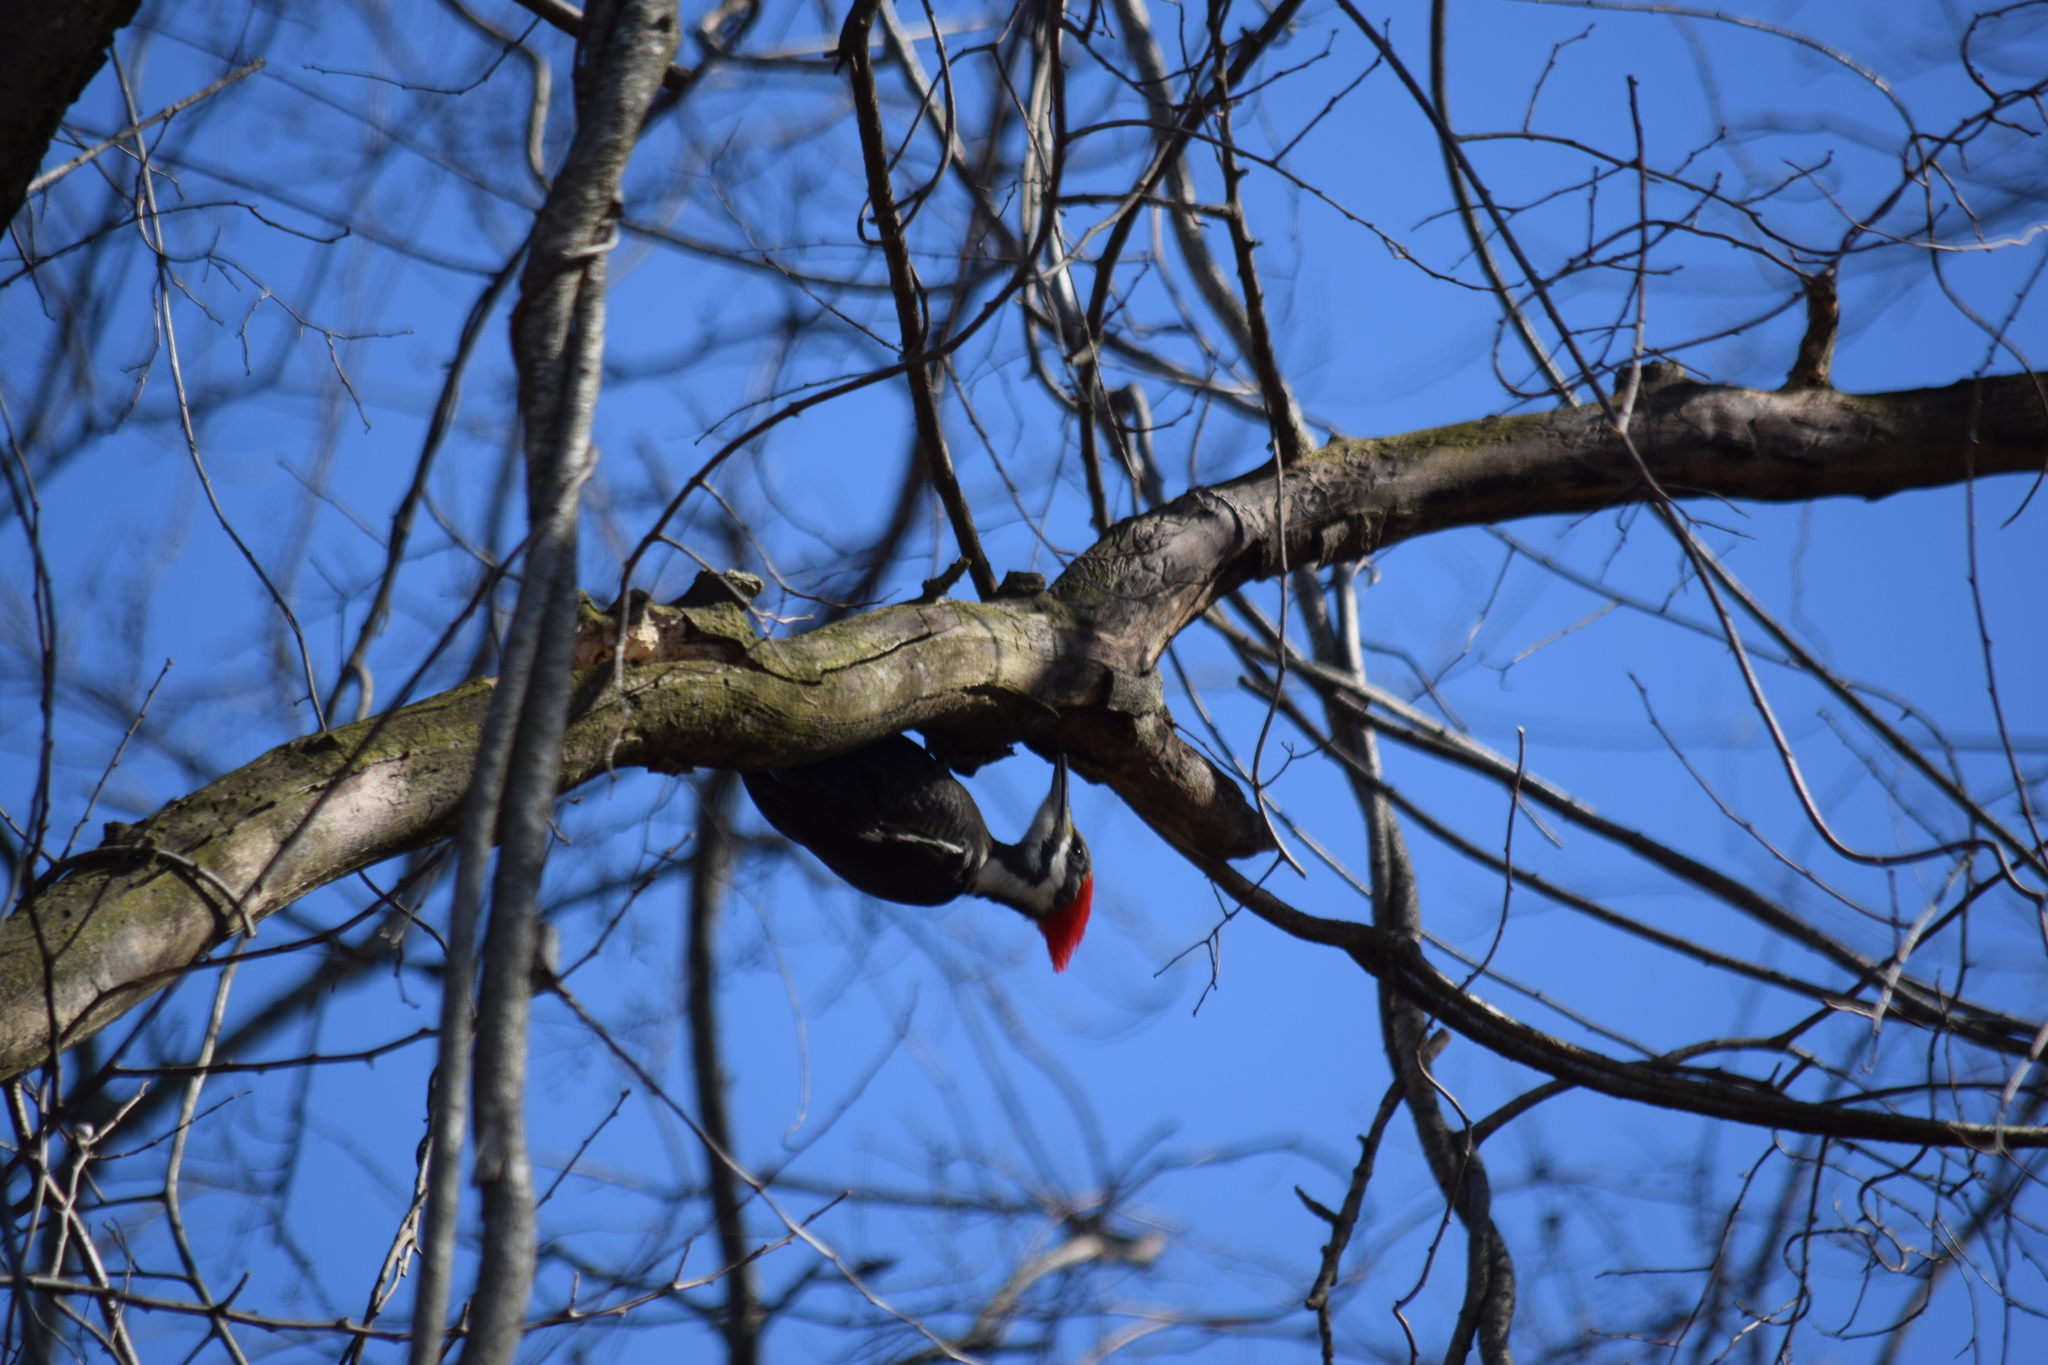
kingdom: Animalia
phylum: Chordata
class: Aves
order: Piciformes
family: Picidae
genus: Dryocopus
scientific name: Dryocopus pileatus
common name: Pileated woodpecker
